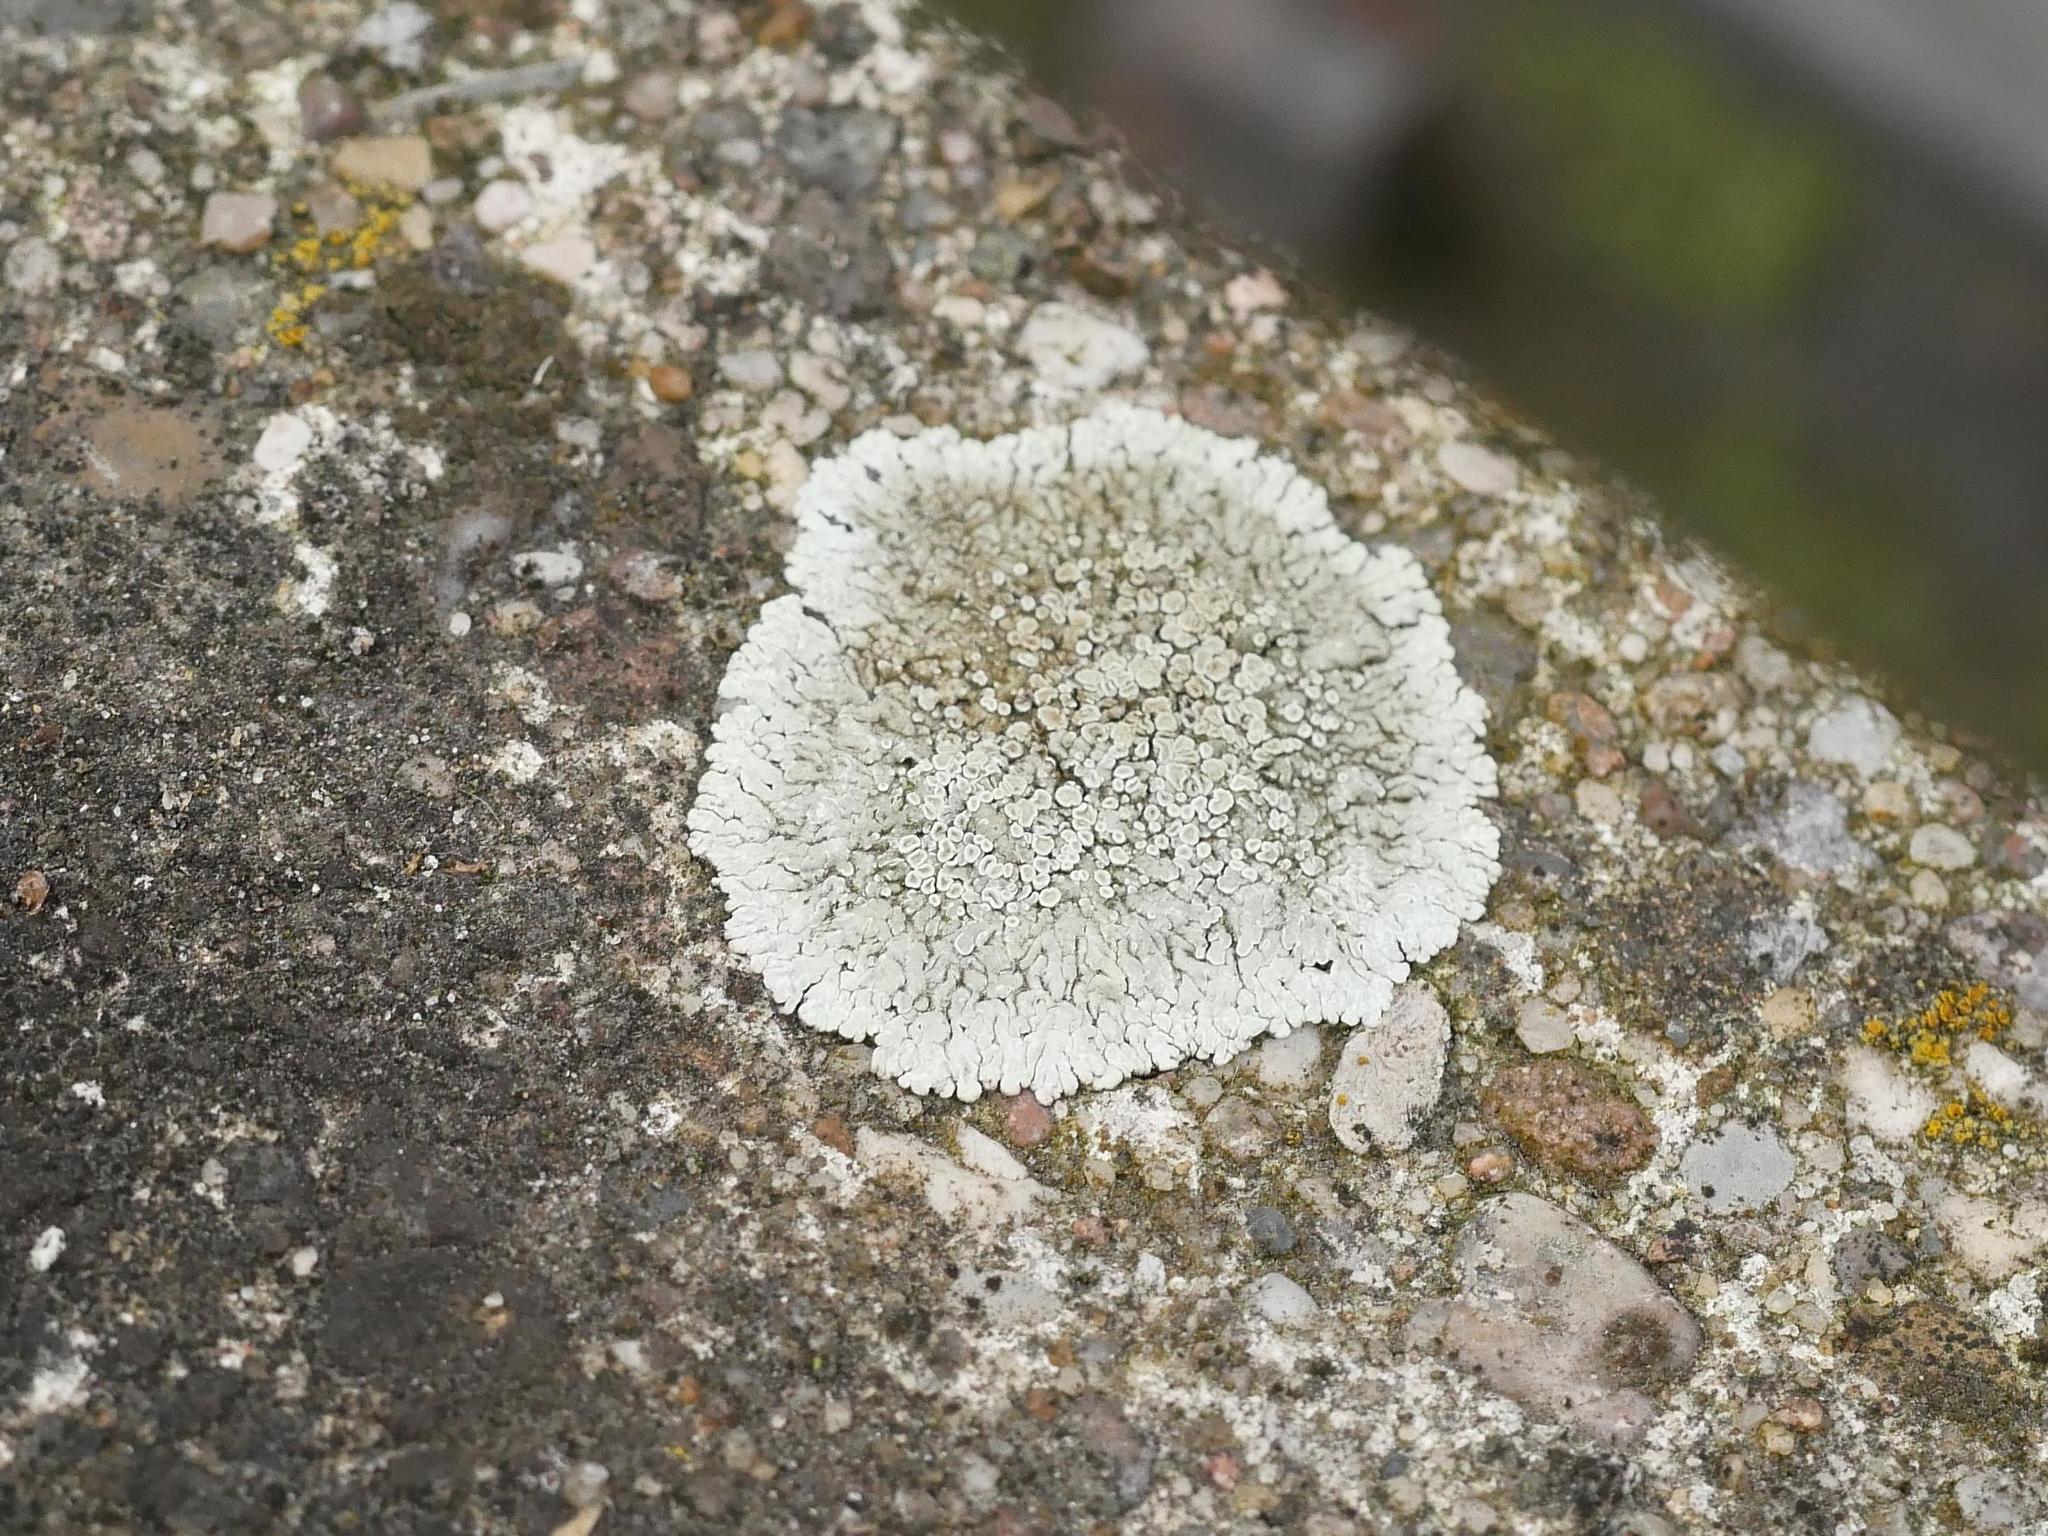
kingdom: Fungi
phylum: Ascomycota
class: Lecanoromycetes
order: Lecanorales
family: Lecanoraceae
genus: Protoparmeliopsis
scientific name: Protoparmeliopsis muralis
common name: Stonewall rim lichen
